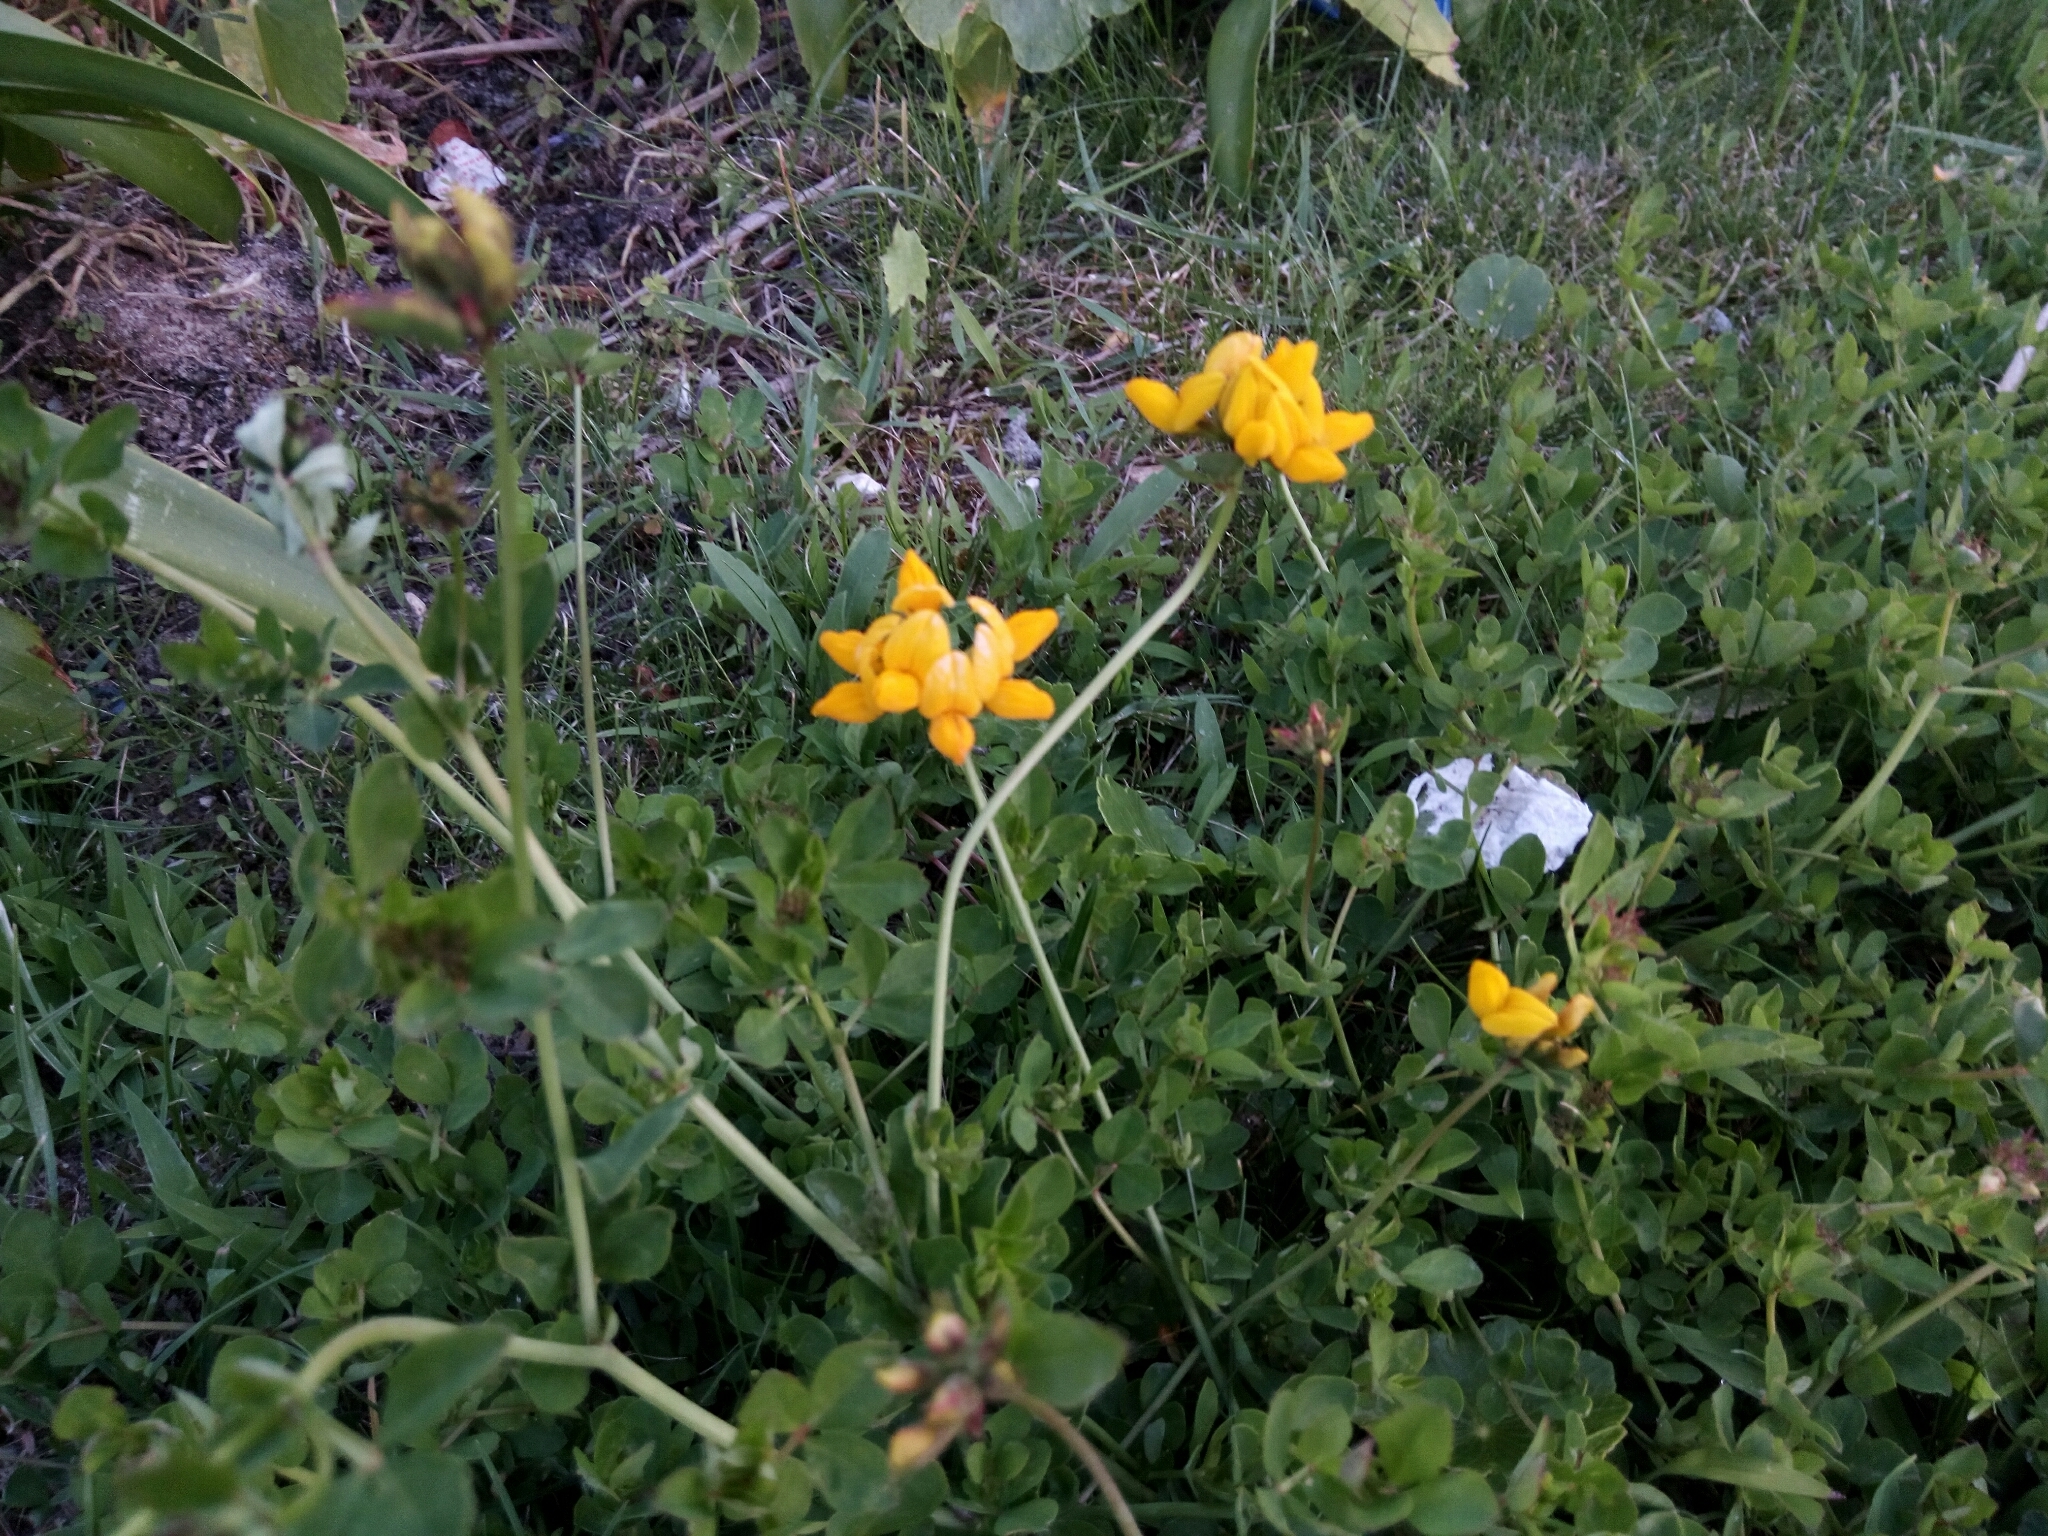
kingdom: Plantae
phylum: Tracheophyta
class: Magnoliopsida
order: Fabales
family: Fabaceae
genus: Lotus
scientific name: Lotus pedunculatus
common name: Greater birdsfoot-trefoil
